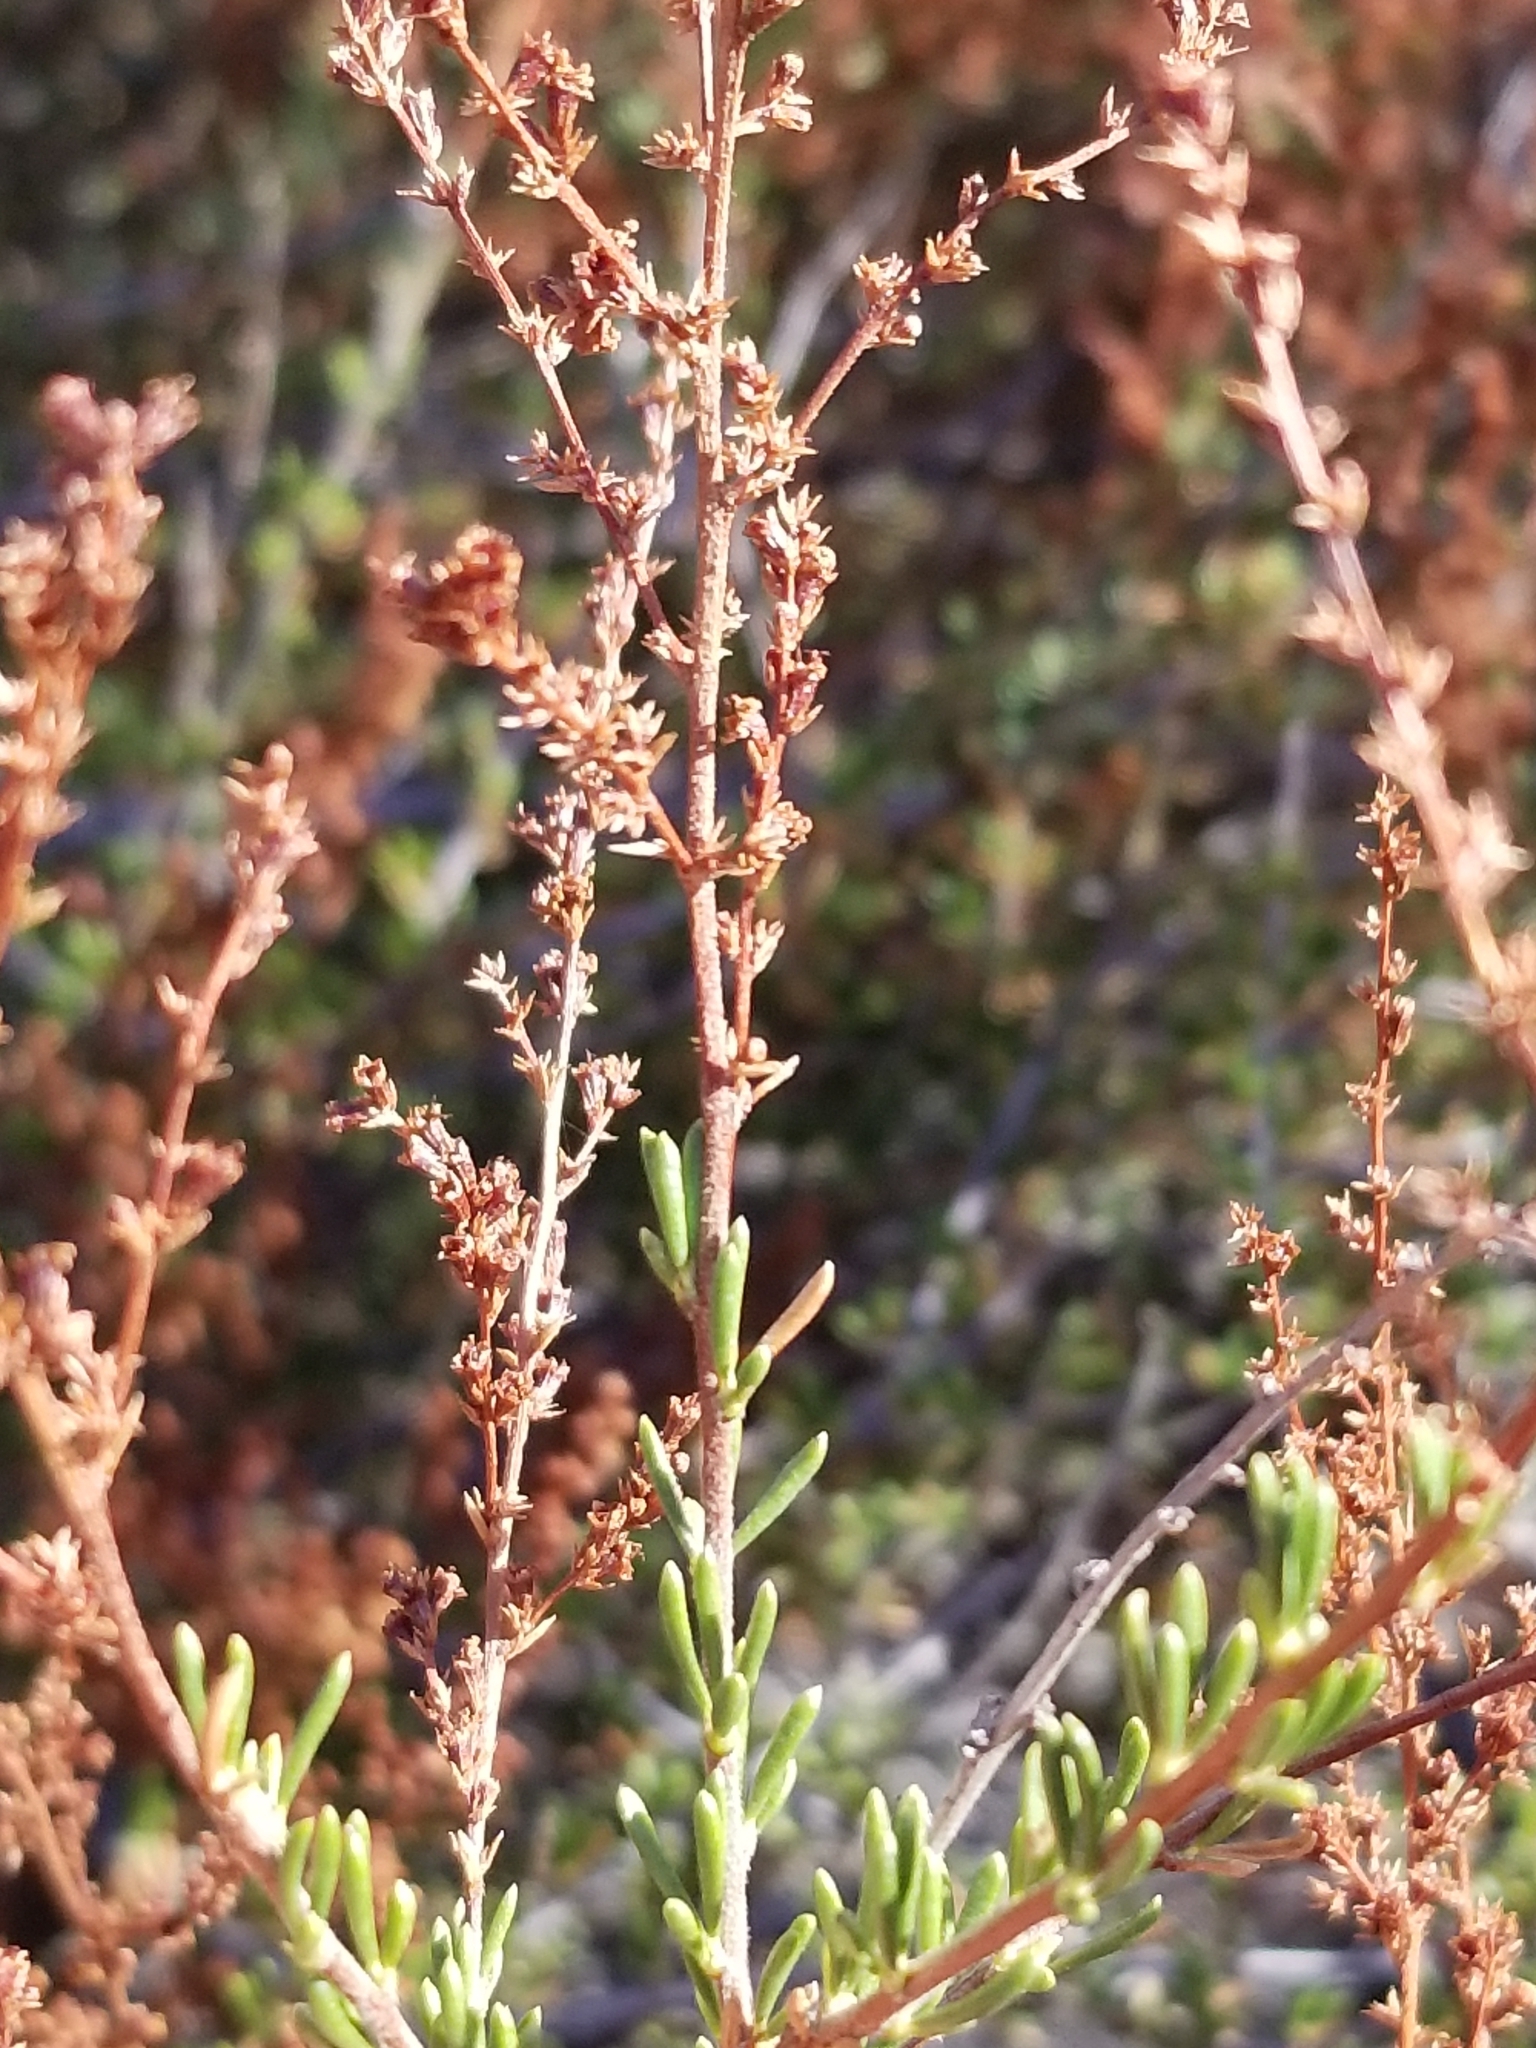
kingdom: Plantae
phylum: Tracheophyta
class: Magnoliopsida
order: Rosales
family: Rosaceae
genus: Adenostoma
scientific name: Adenostoma fasciculatum
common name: Chamise
